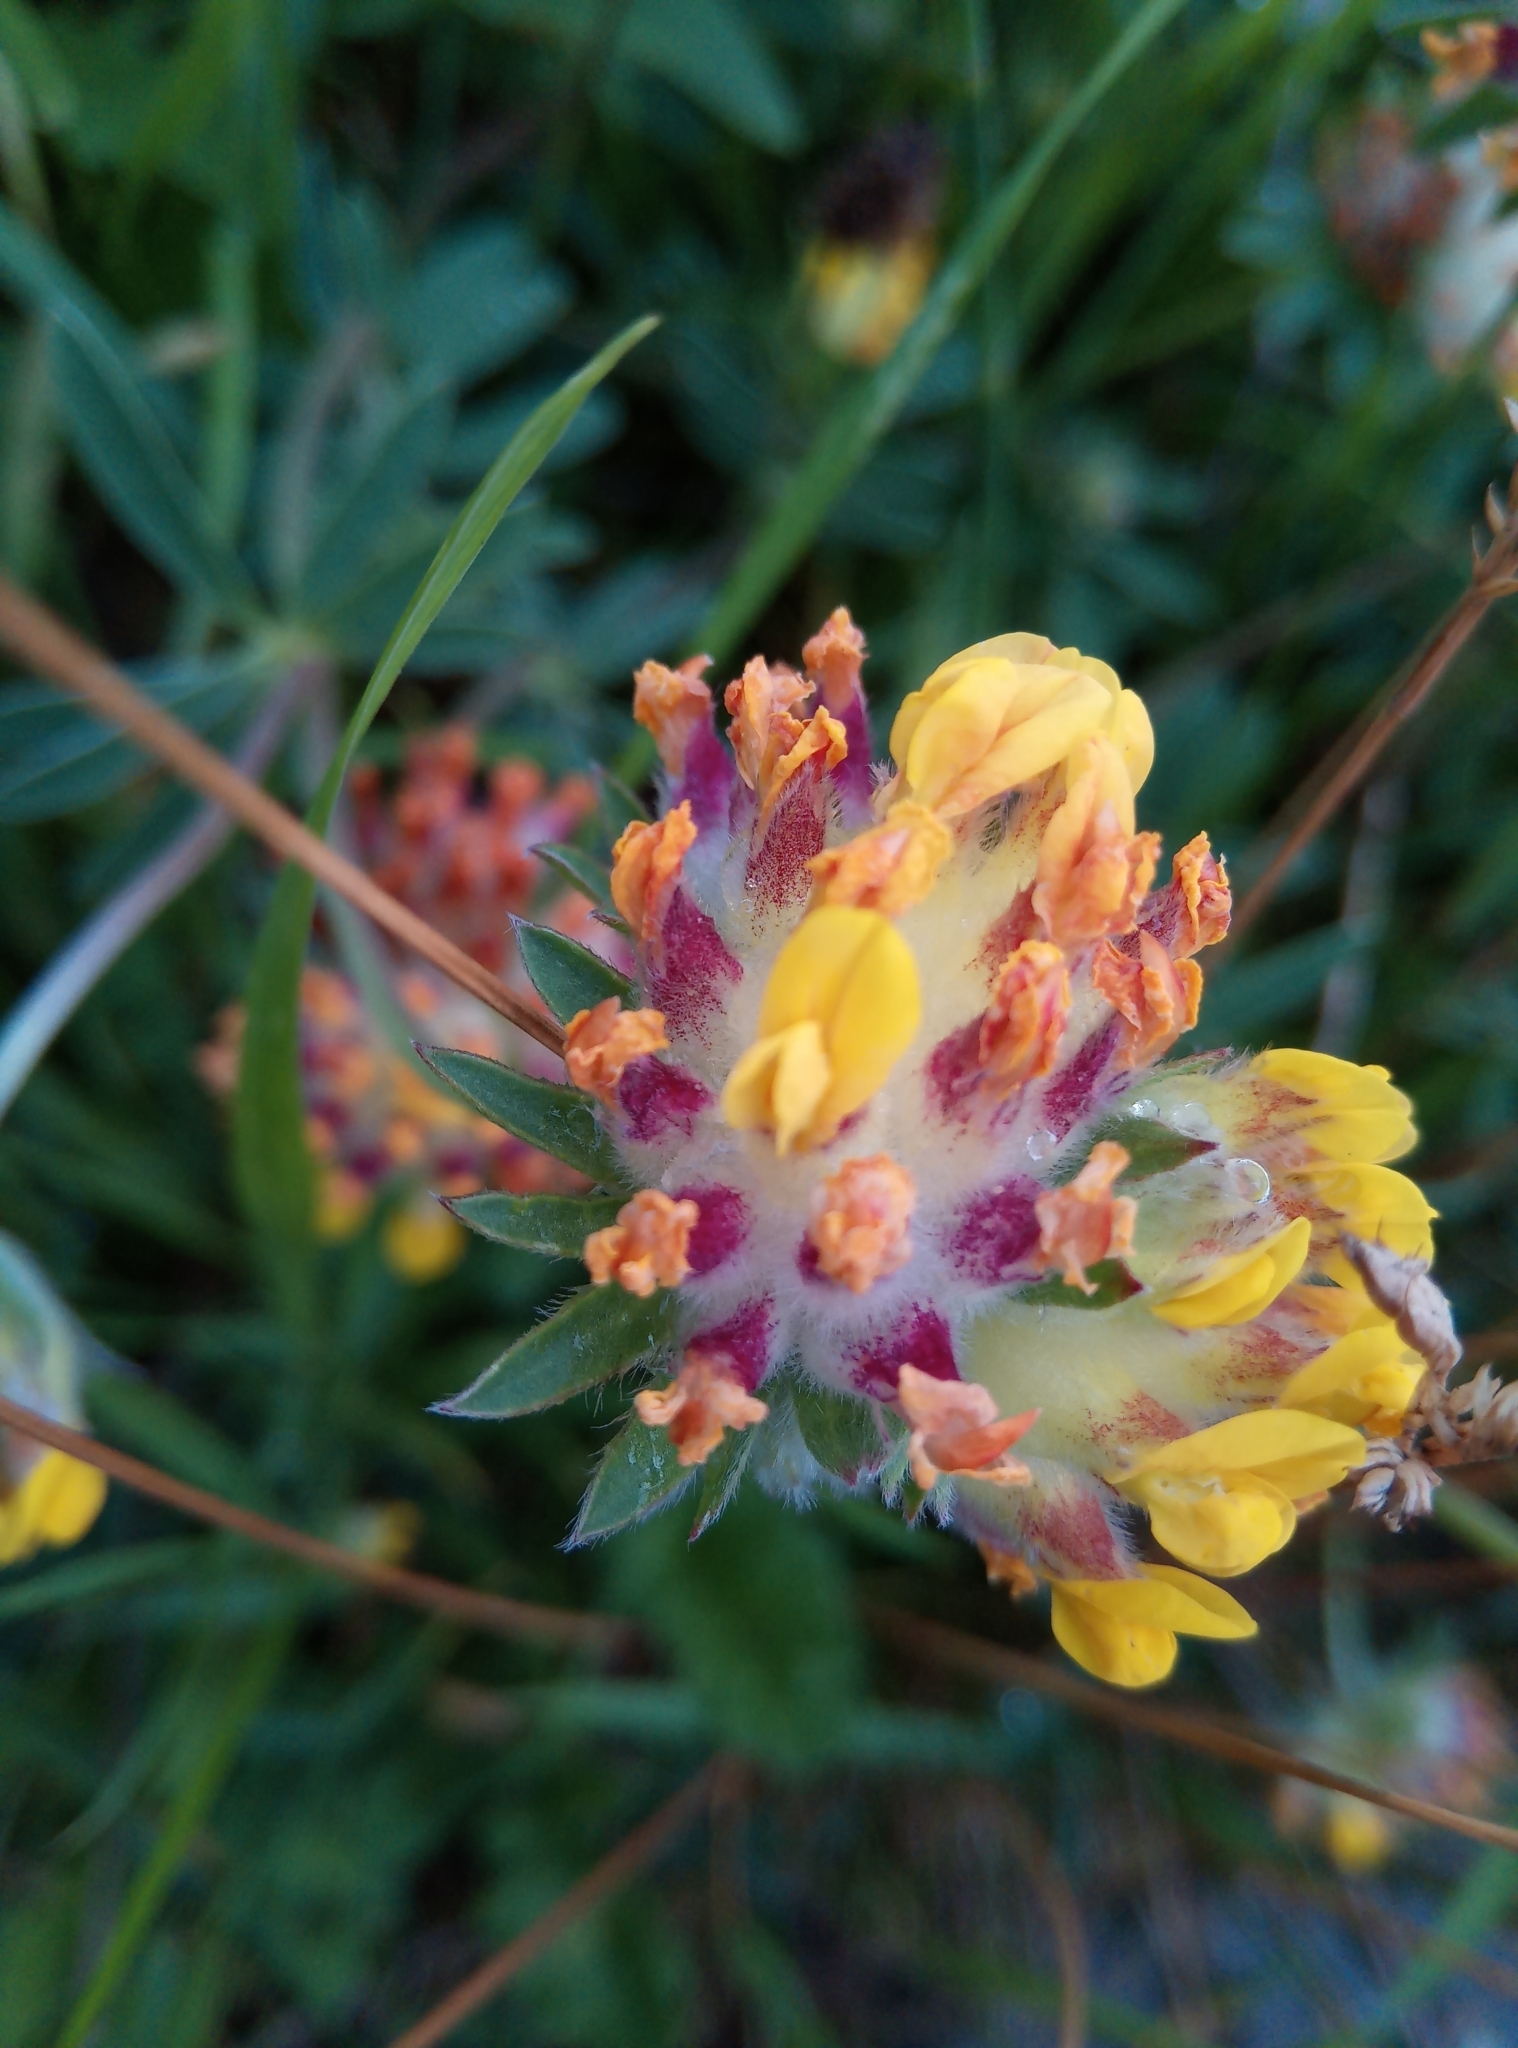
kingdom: Plantae
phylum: Tracheophyta
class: Magnoliopsida
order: Fabales
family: Fabaceae
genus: Anthyllis
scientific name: Anthyllis vulneraria
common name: Kidney vetch
